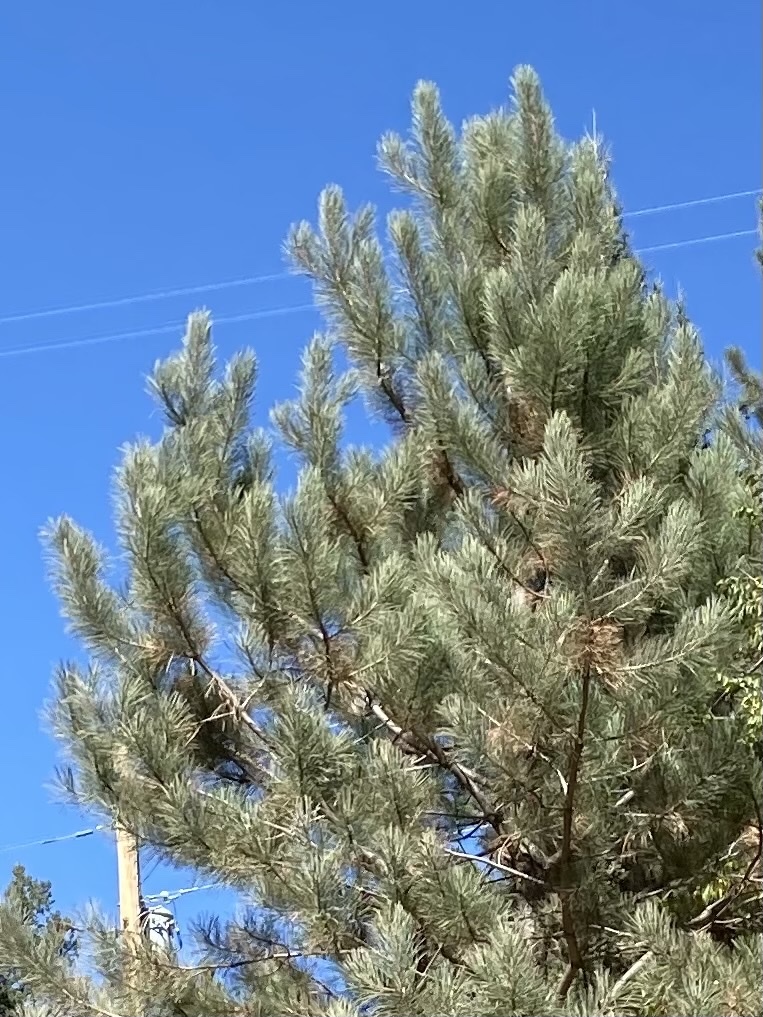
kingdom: Plantae
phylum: Tracheophyta
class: Pinopsida
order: Pinales
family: Pinaceae
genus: Pinus
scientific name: Pinus strobiformis
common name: Southwestern white pine
